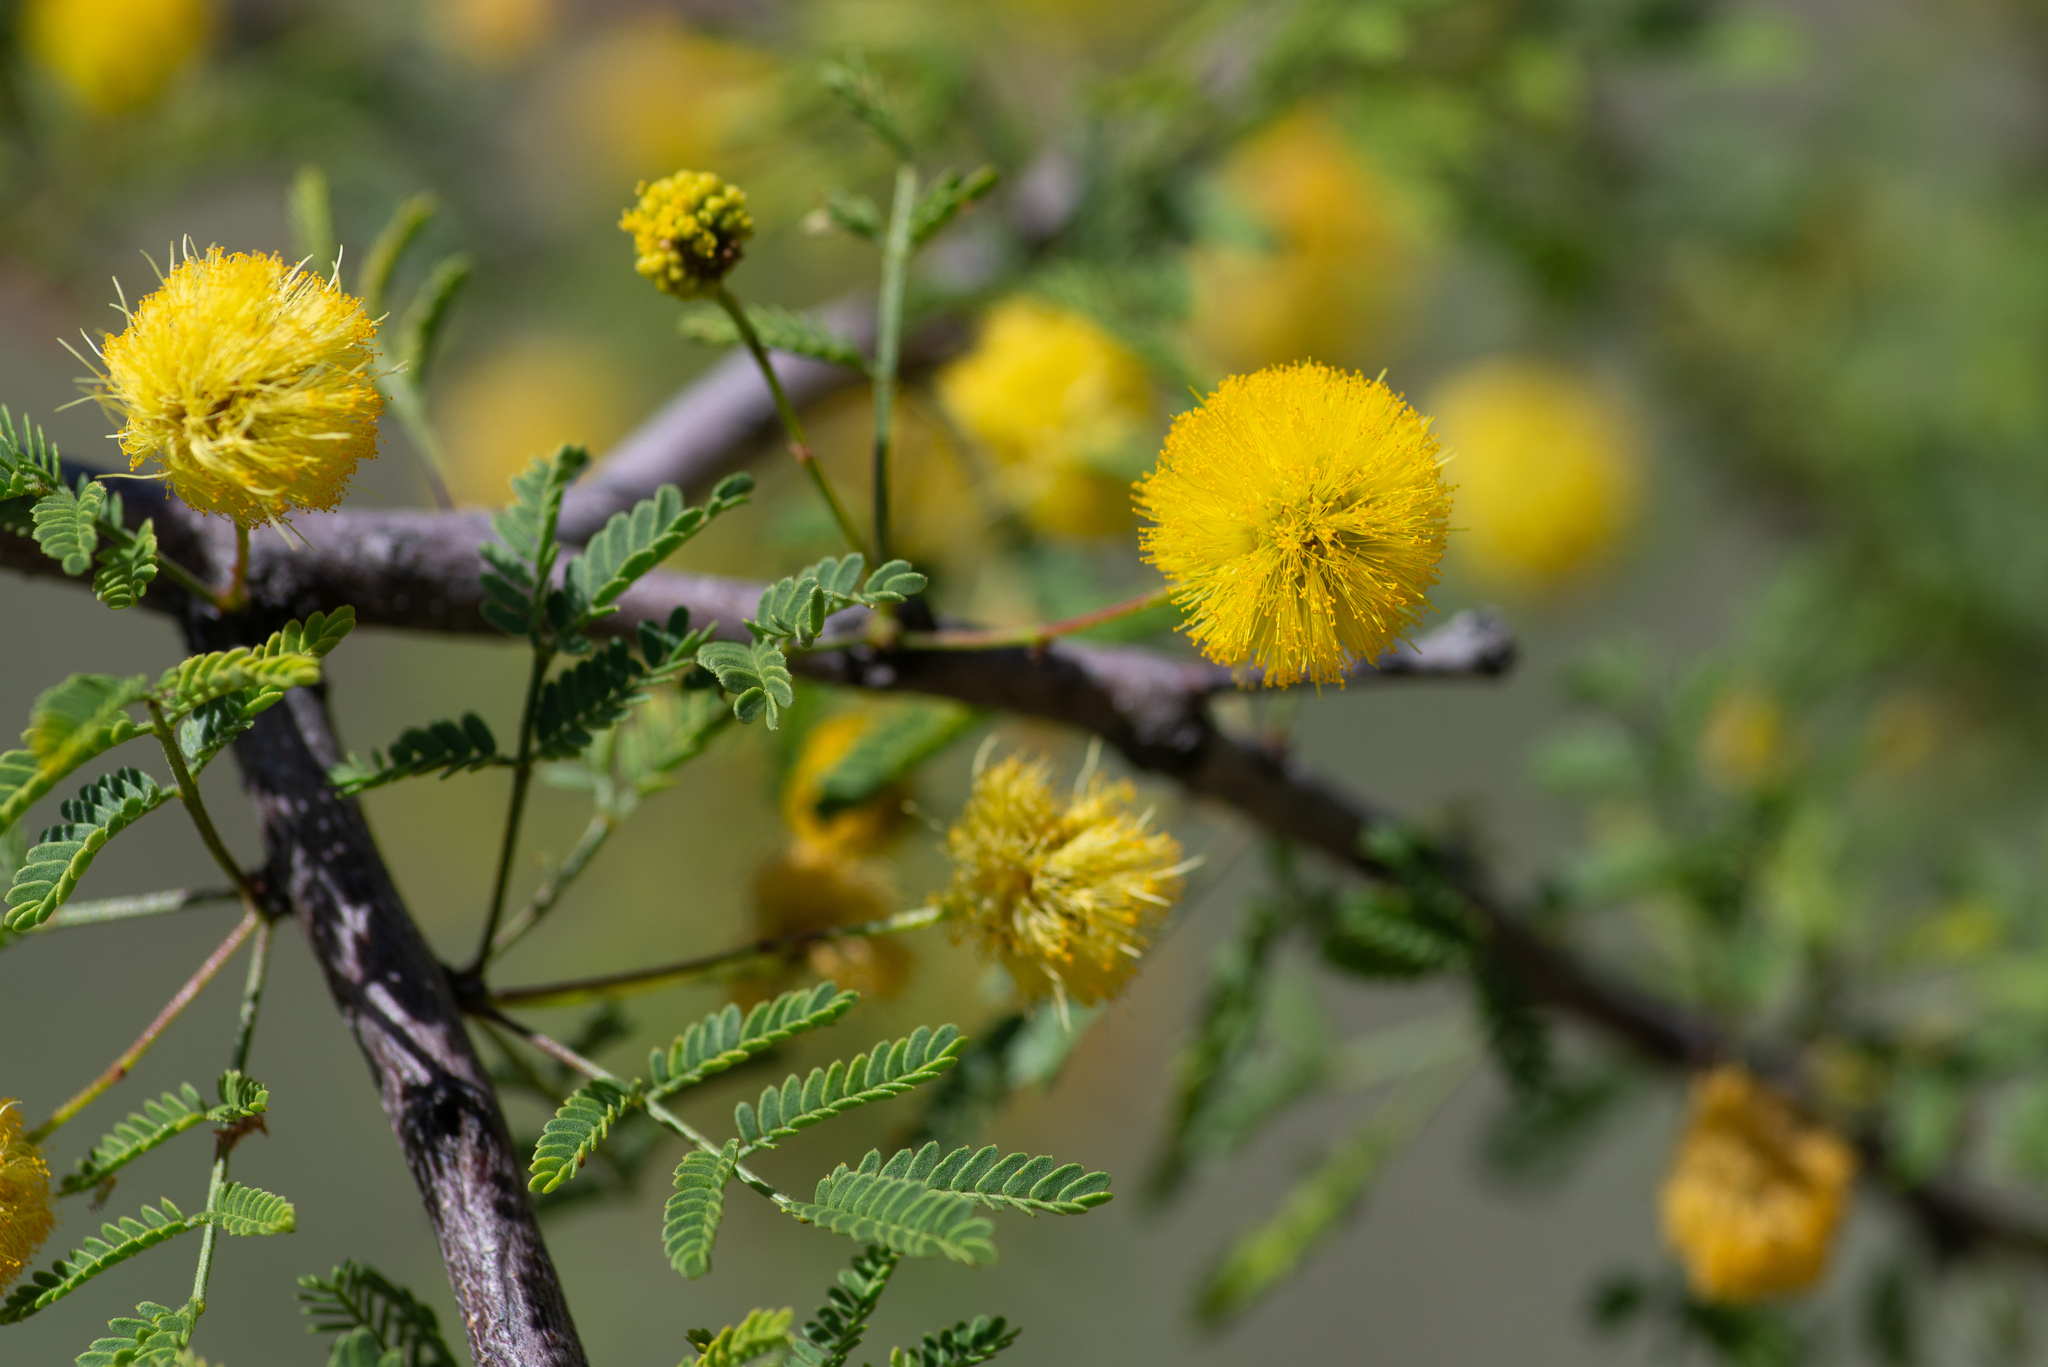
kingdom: Plantae
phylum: Tracheophyta
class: Magnoliopsida
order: Fabales
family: Fabaceae
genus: Vachellia
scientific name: Vachellia constricta
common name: Mescat acacia
